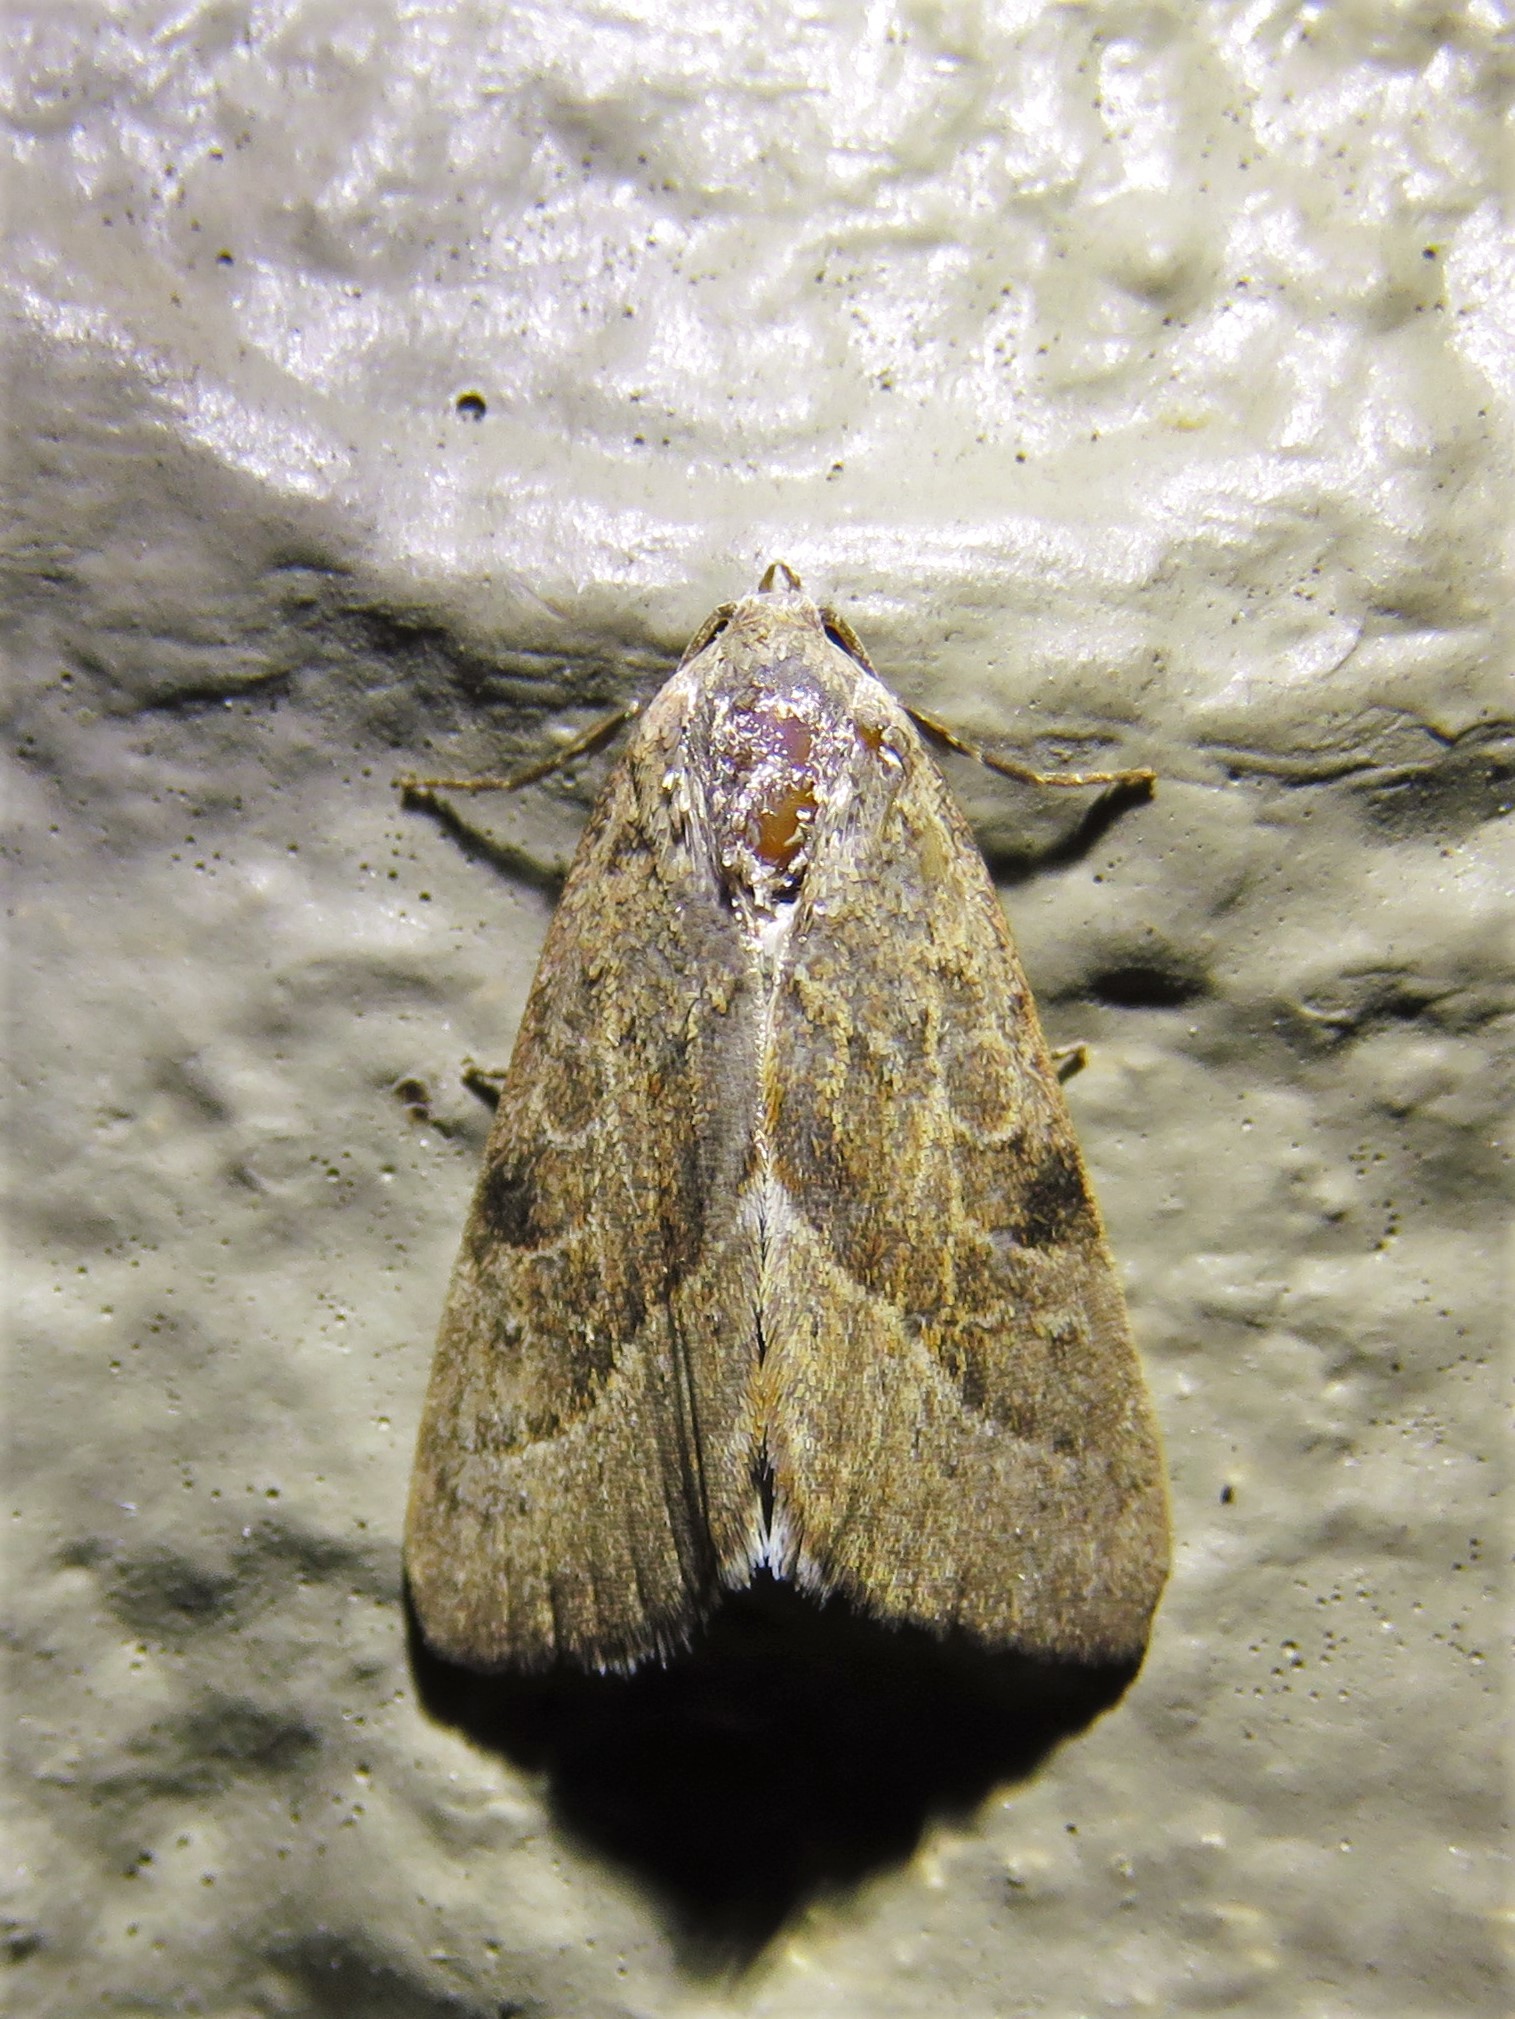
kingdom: Animalia
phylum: Arthropoda
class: Insecta
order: Lepidoptera
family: Noctuidae
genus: Galgula
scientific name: Galgula partita
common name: Wedgeling
